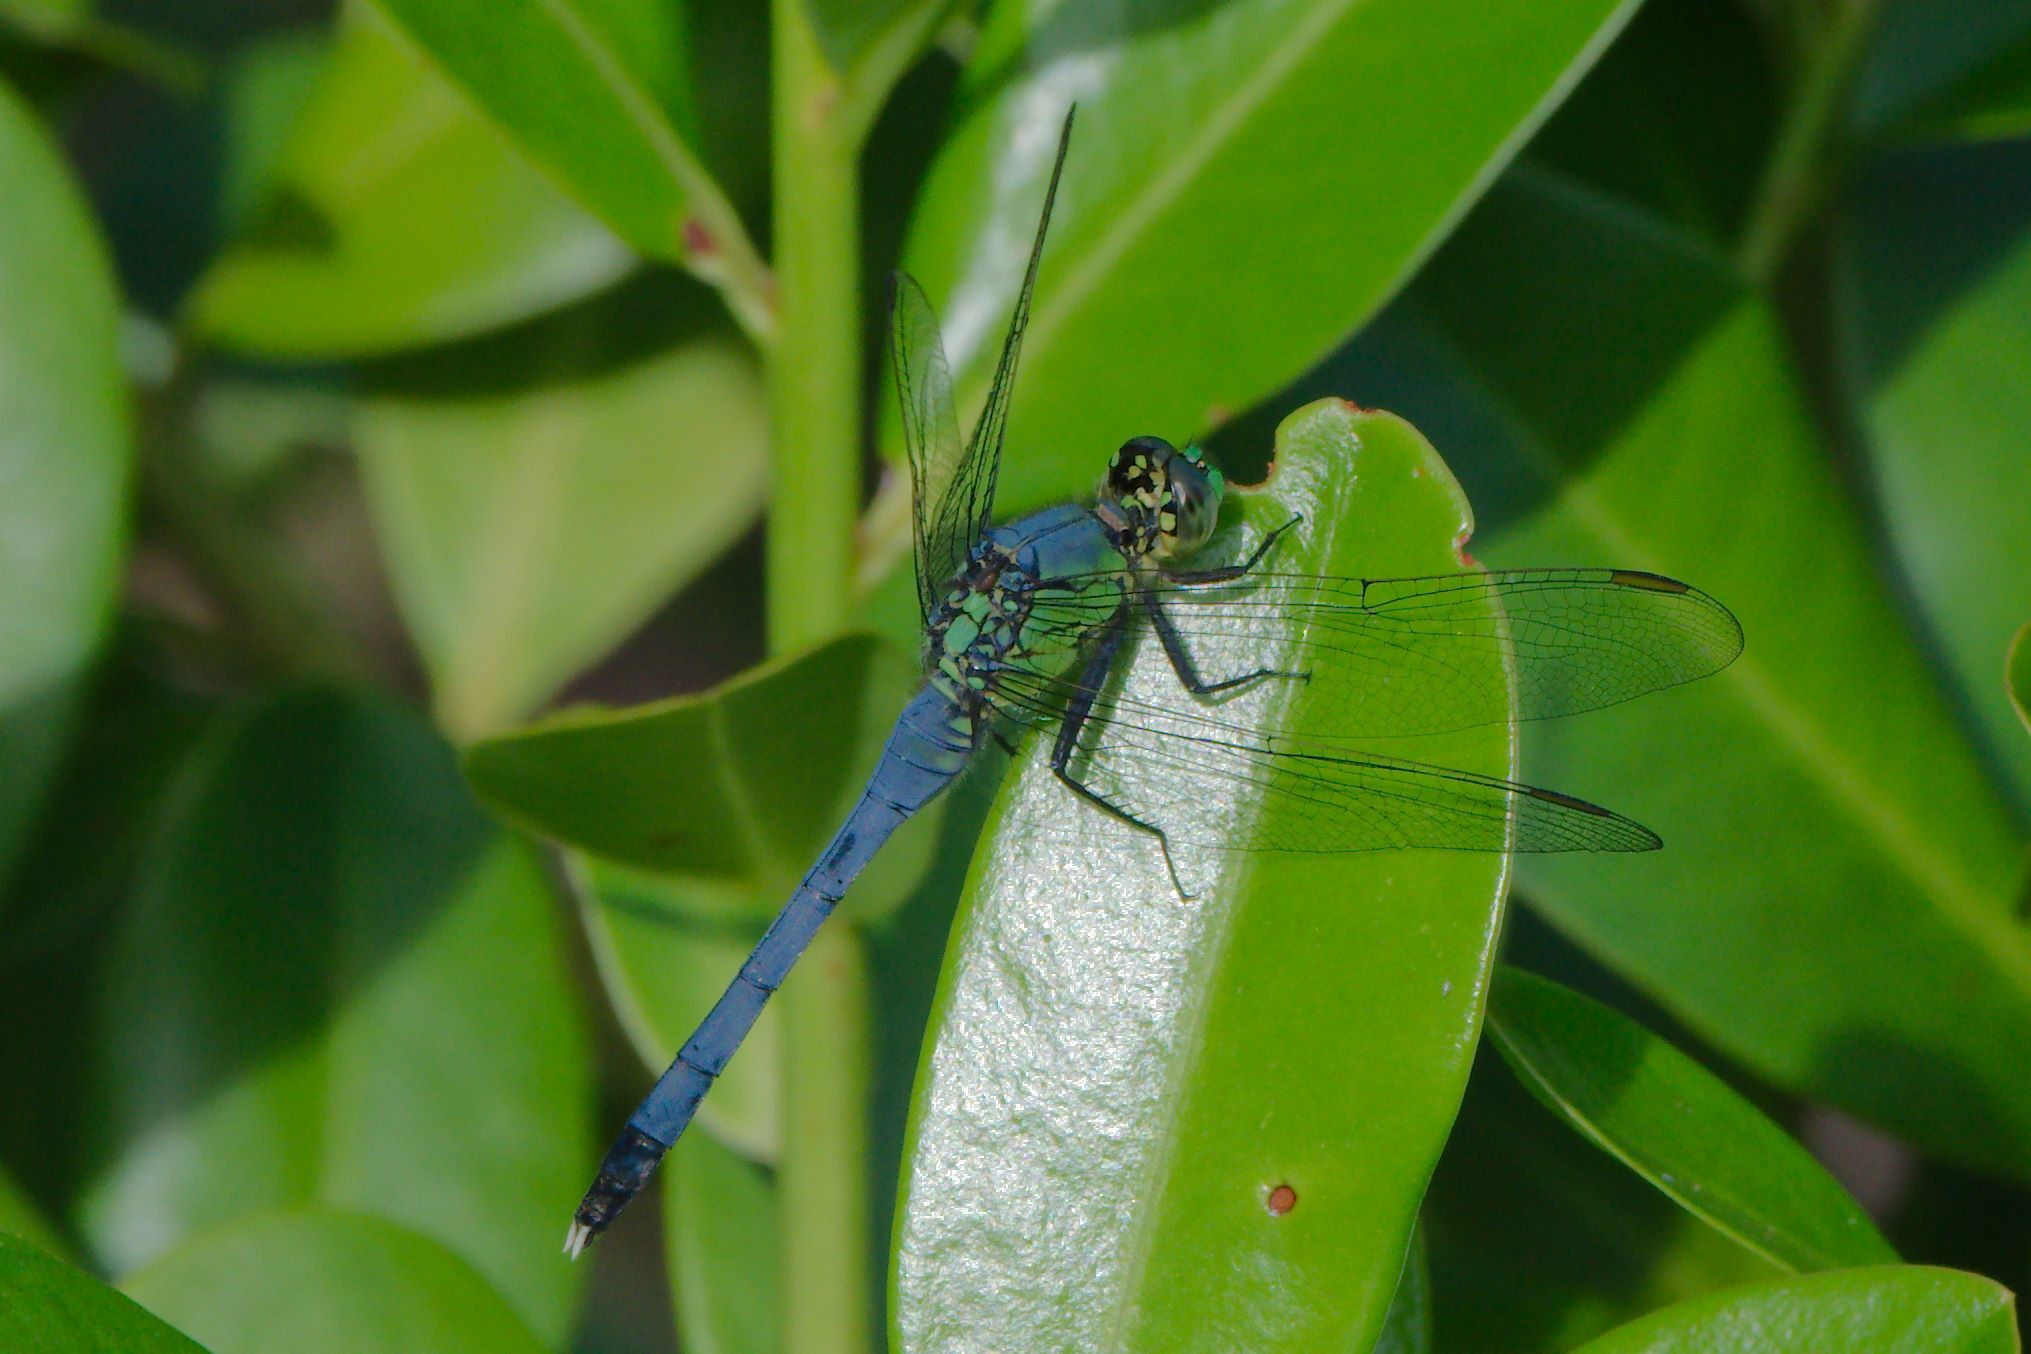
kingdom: Animalia
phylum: Arthropoda
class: Insecta
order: Odonata
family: Libellulidae
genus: Erythemis
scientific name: Erythemis simplicicollis
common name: Eastern pondhawk
